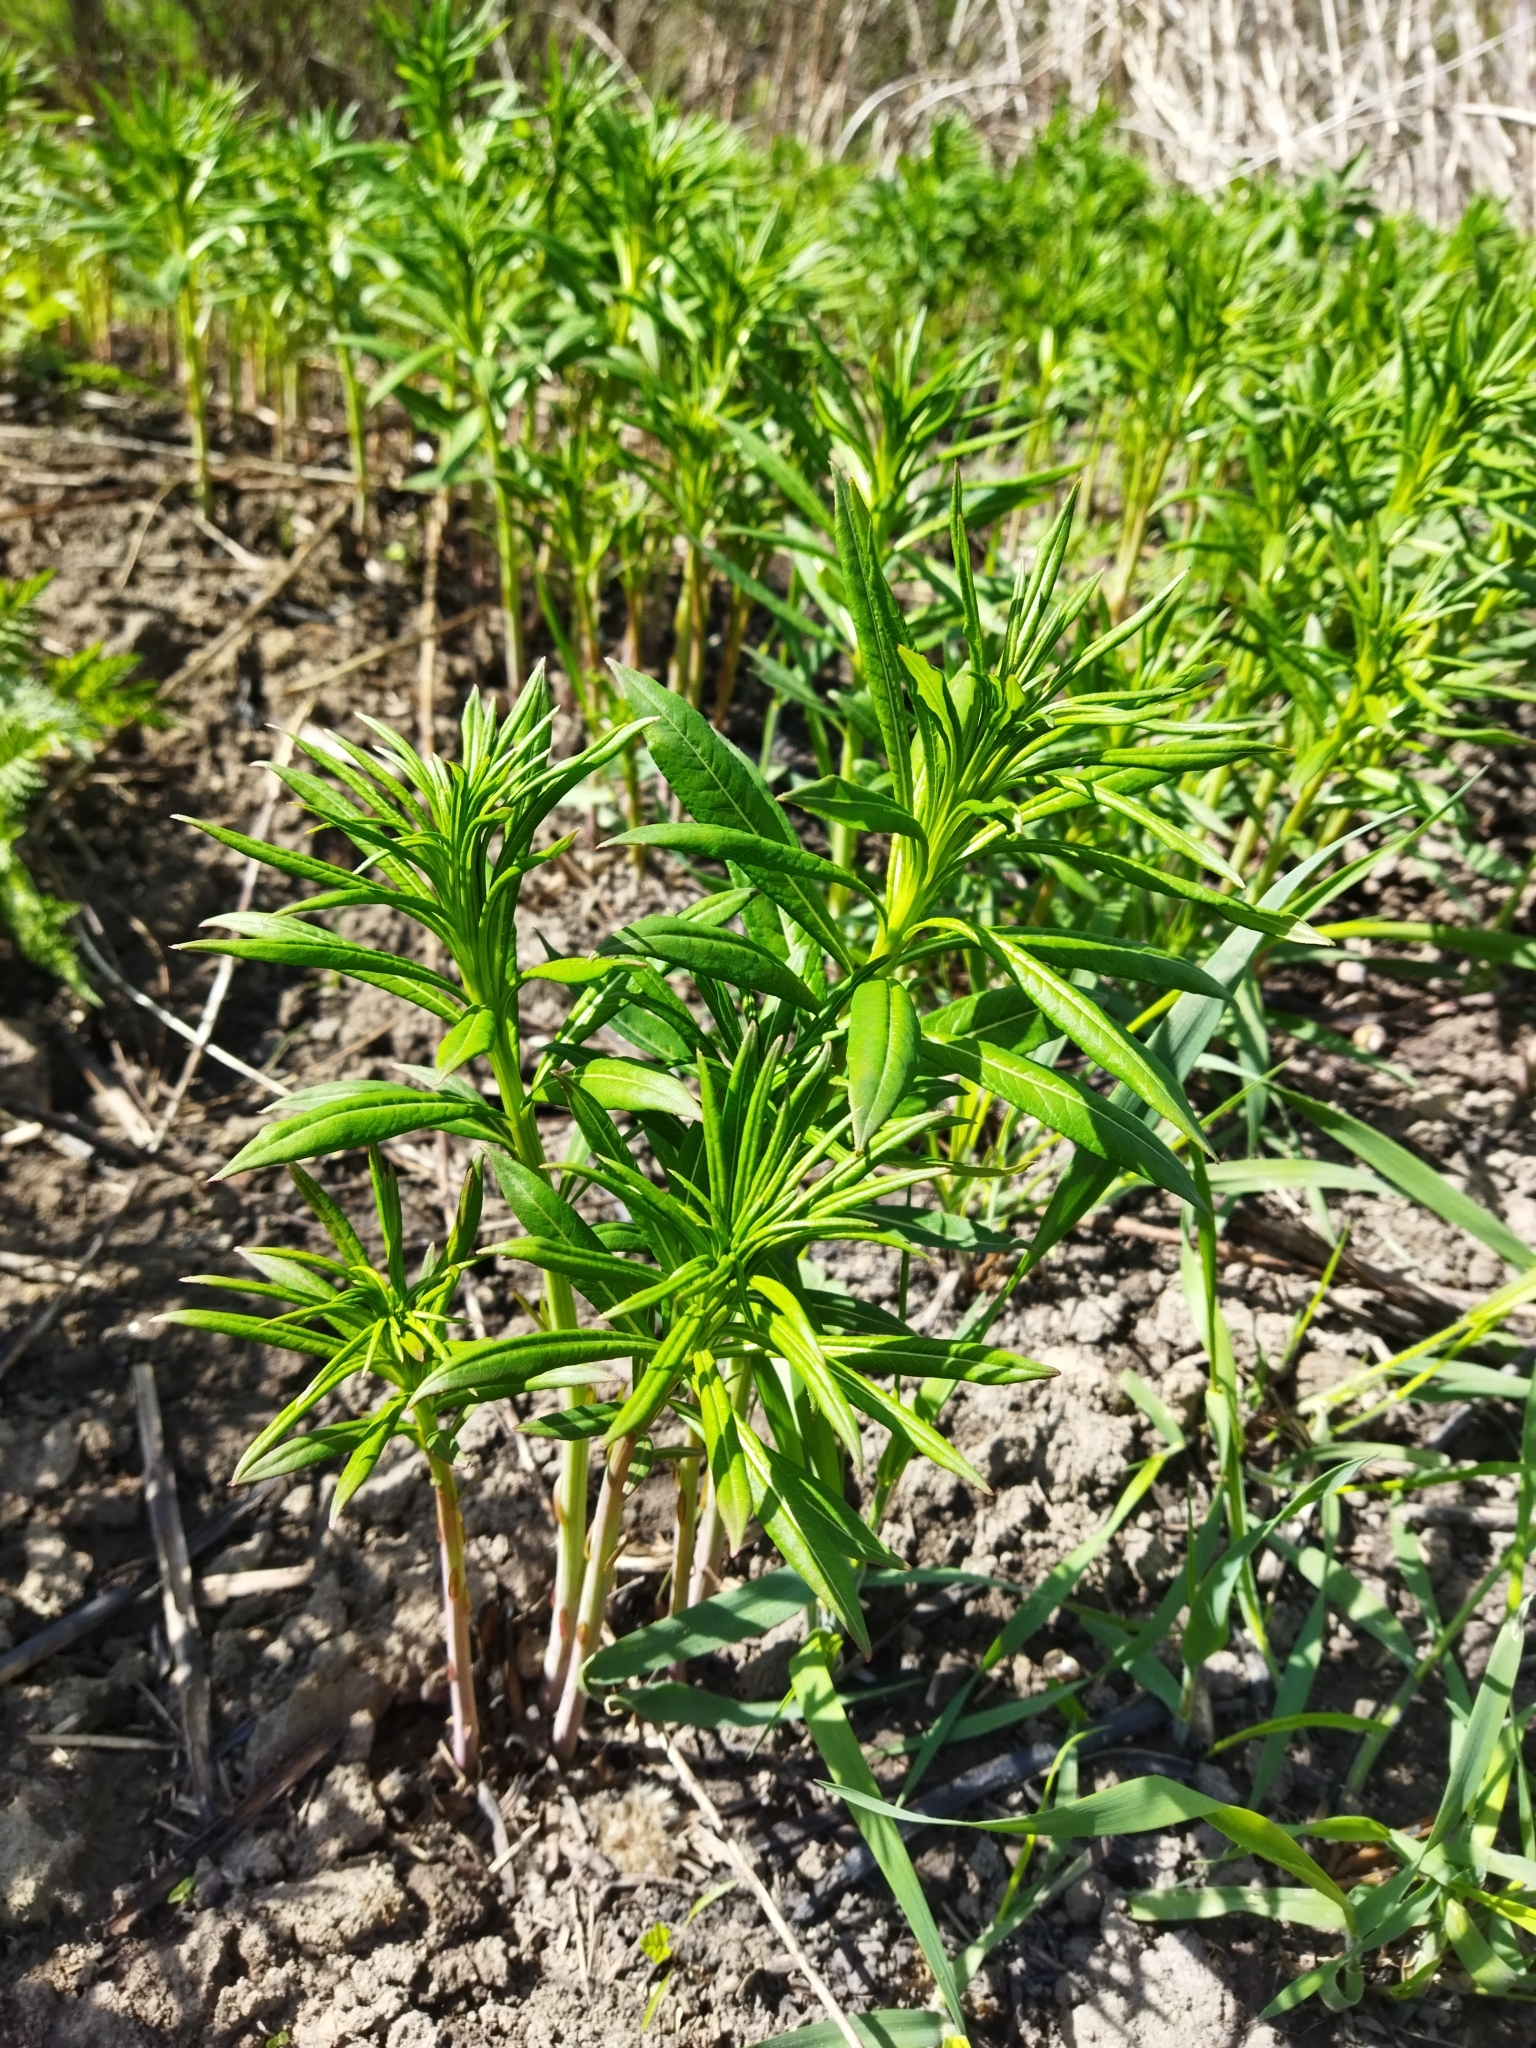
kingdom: Plantae
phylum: Tracheophyta
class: Magnoliopsida
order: Myrtales
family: Onagraceae
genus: Chamaenerion
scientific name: Chamaenerion angustifolium
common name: Fireweed
